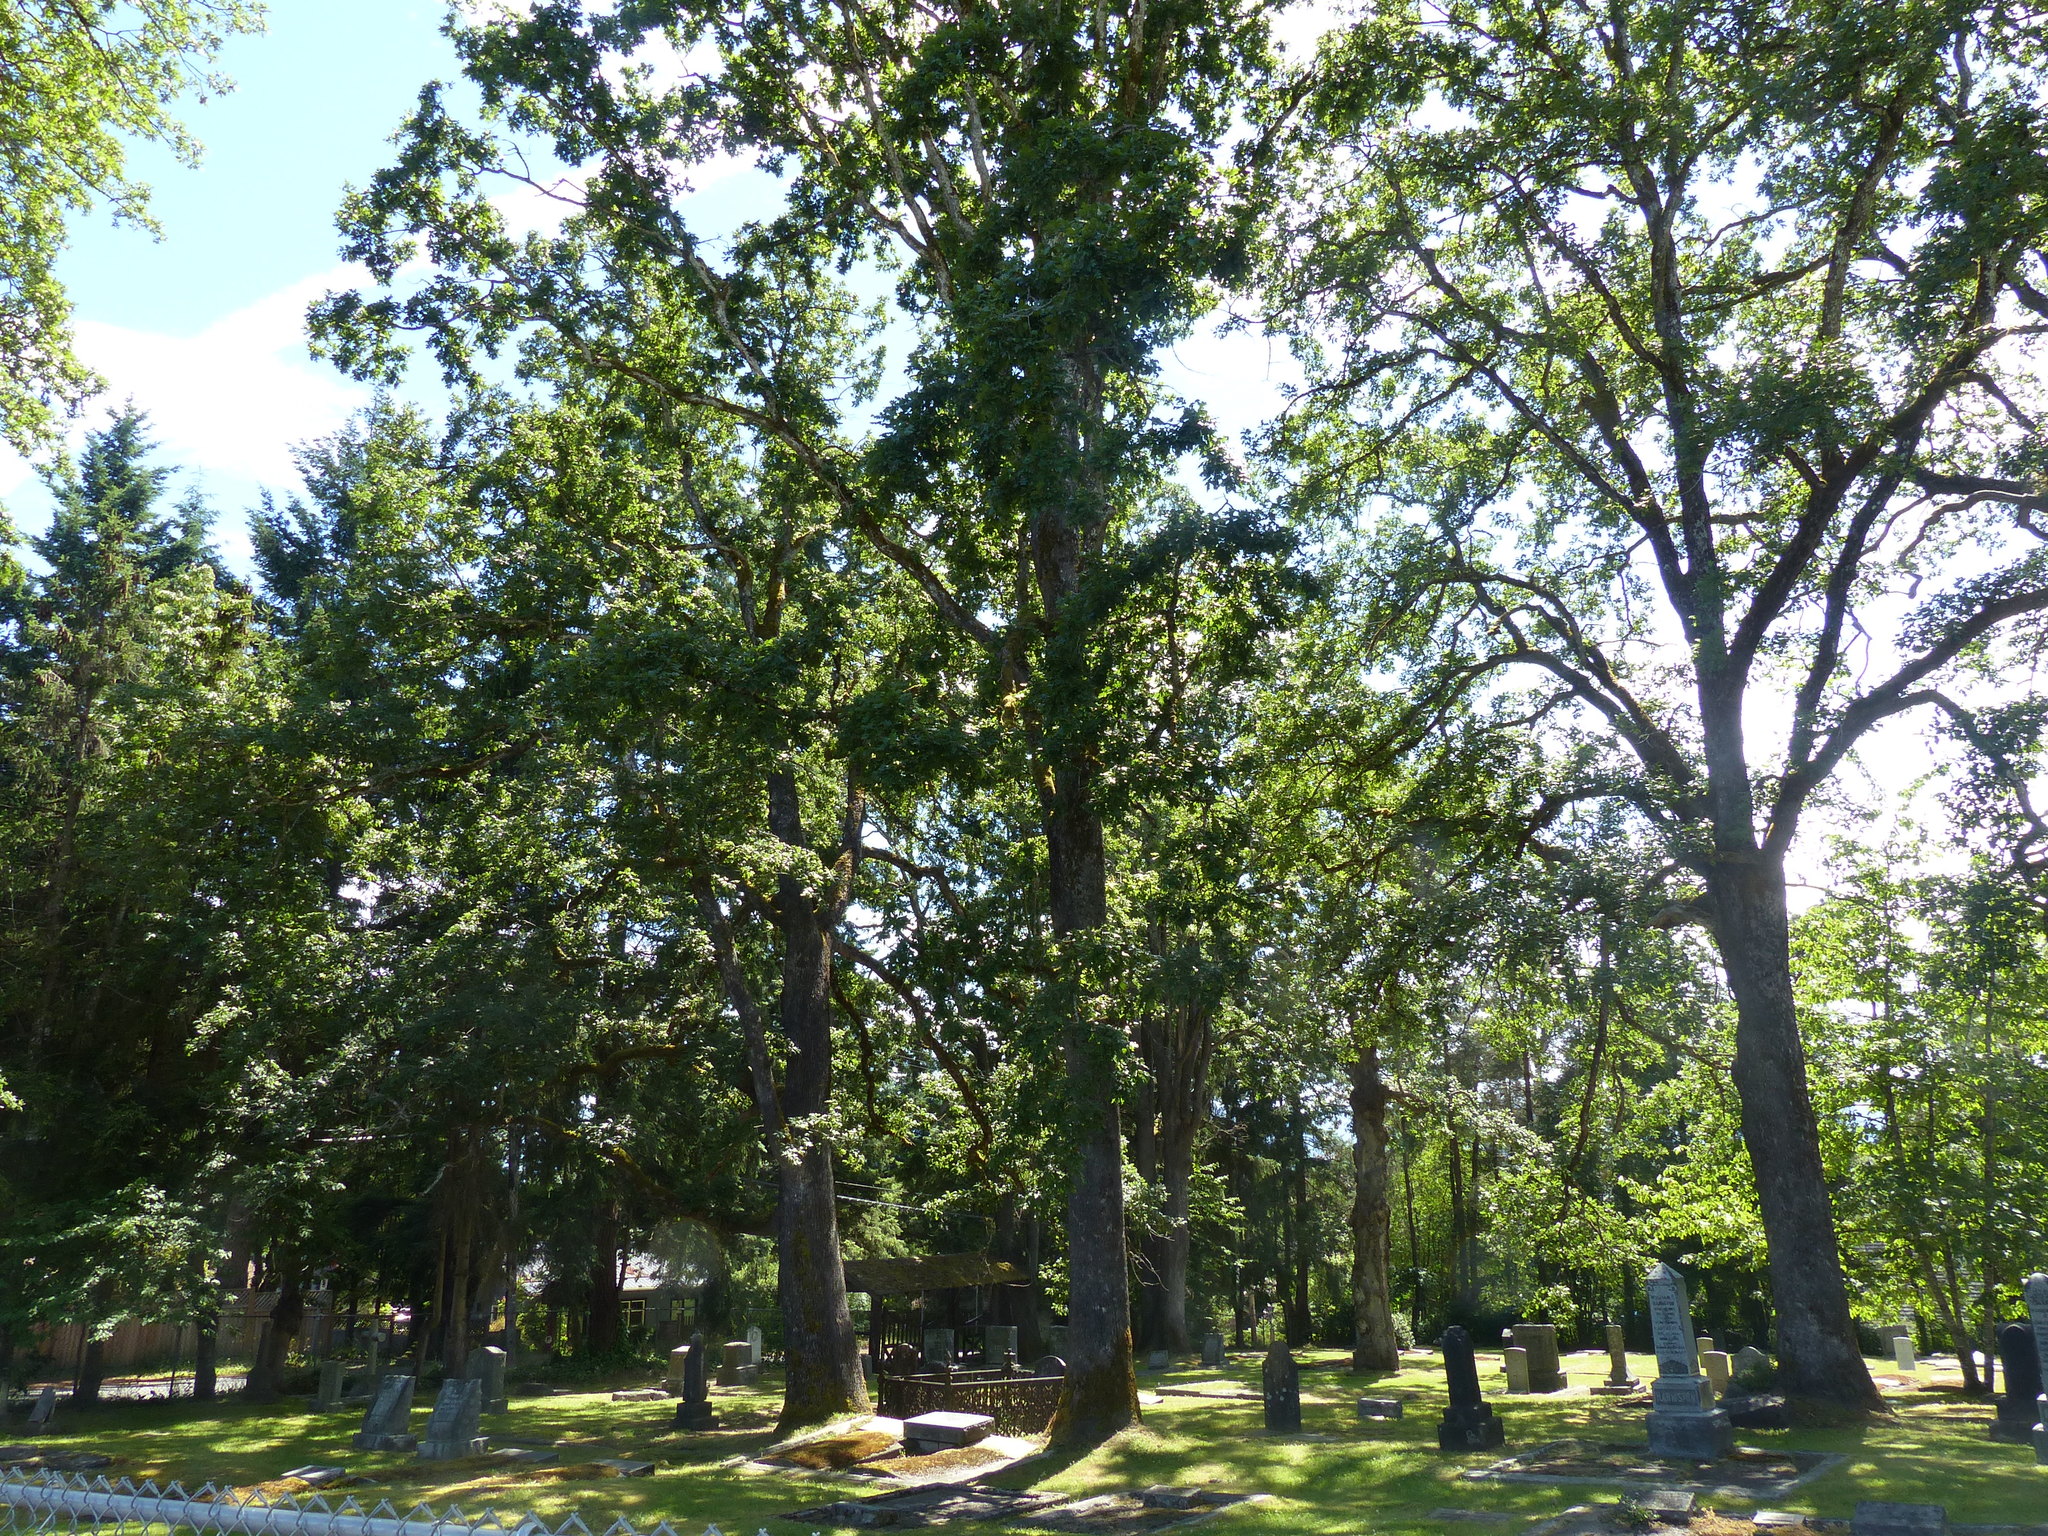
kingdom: Plantae
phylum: Tracheophyta
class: Magnoliopsida
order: Fagales
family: Fagaceae
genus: Quercus
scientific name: Quercus garryana
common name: Garry oak
